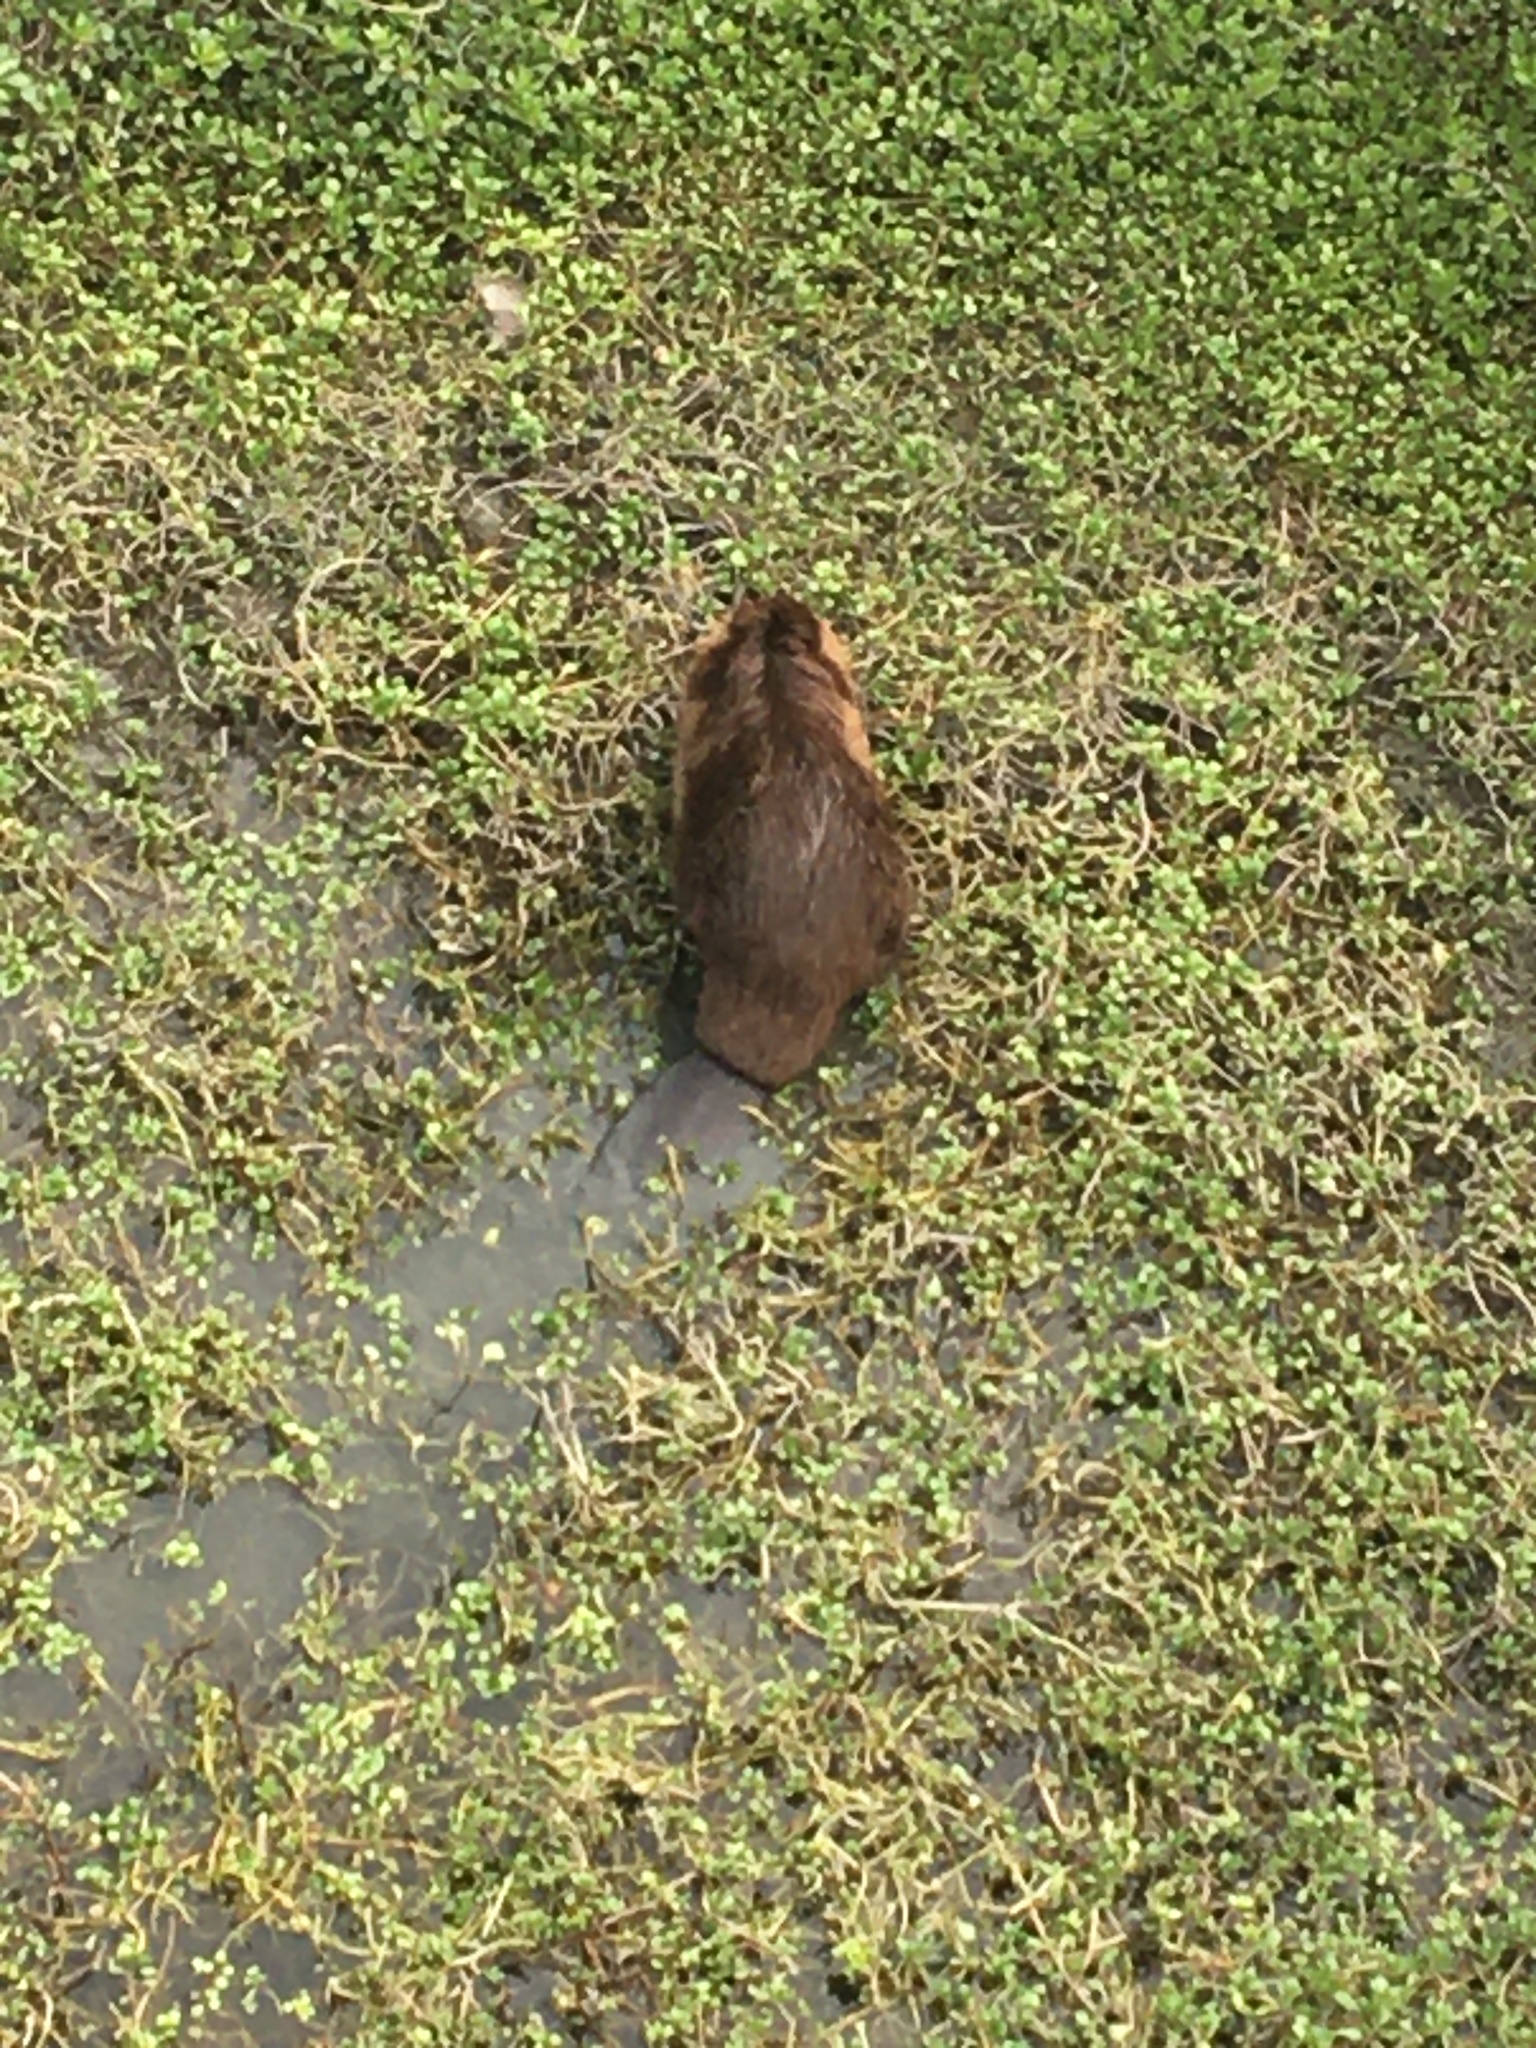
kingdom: Animalia
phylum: Chordata
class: Mammalia
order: Rodentia
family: Castoridae
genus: Castor
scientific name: Castor canadensis
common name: American beaver
